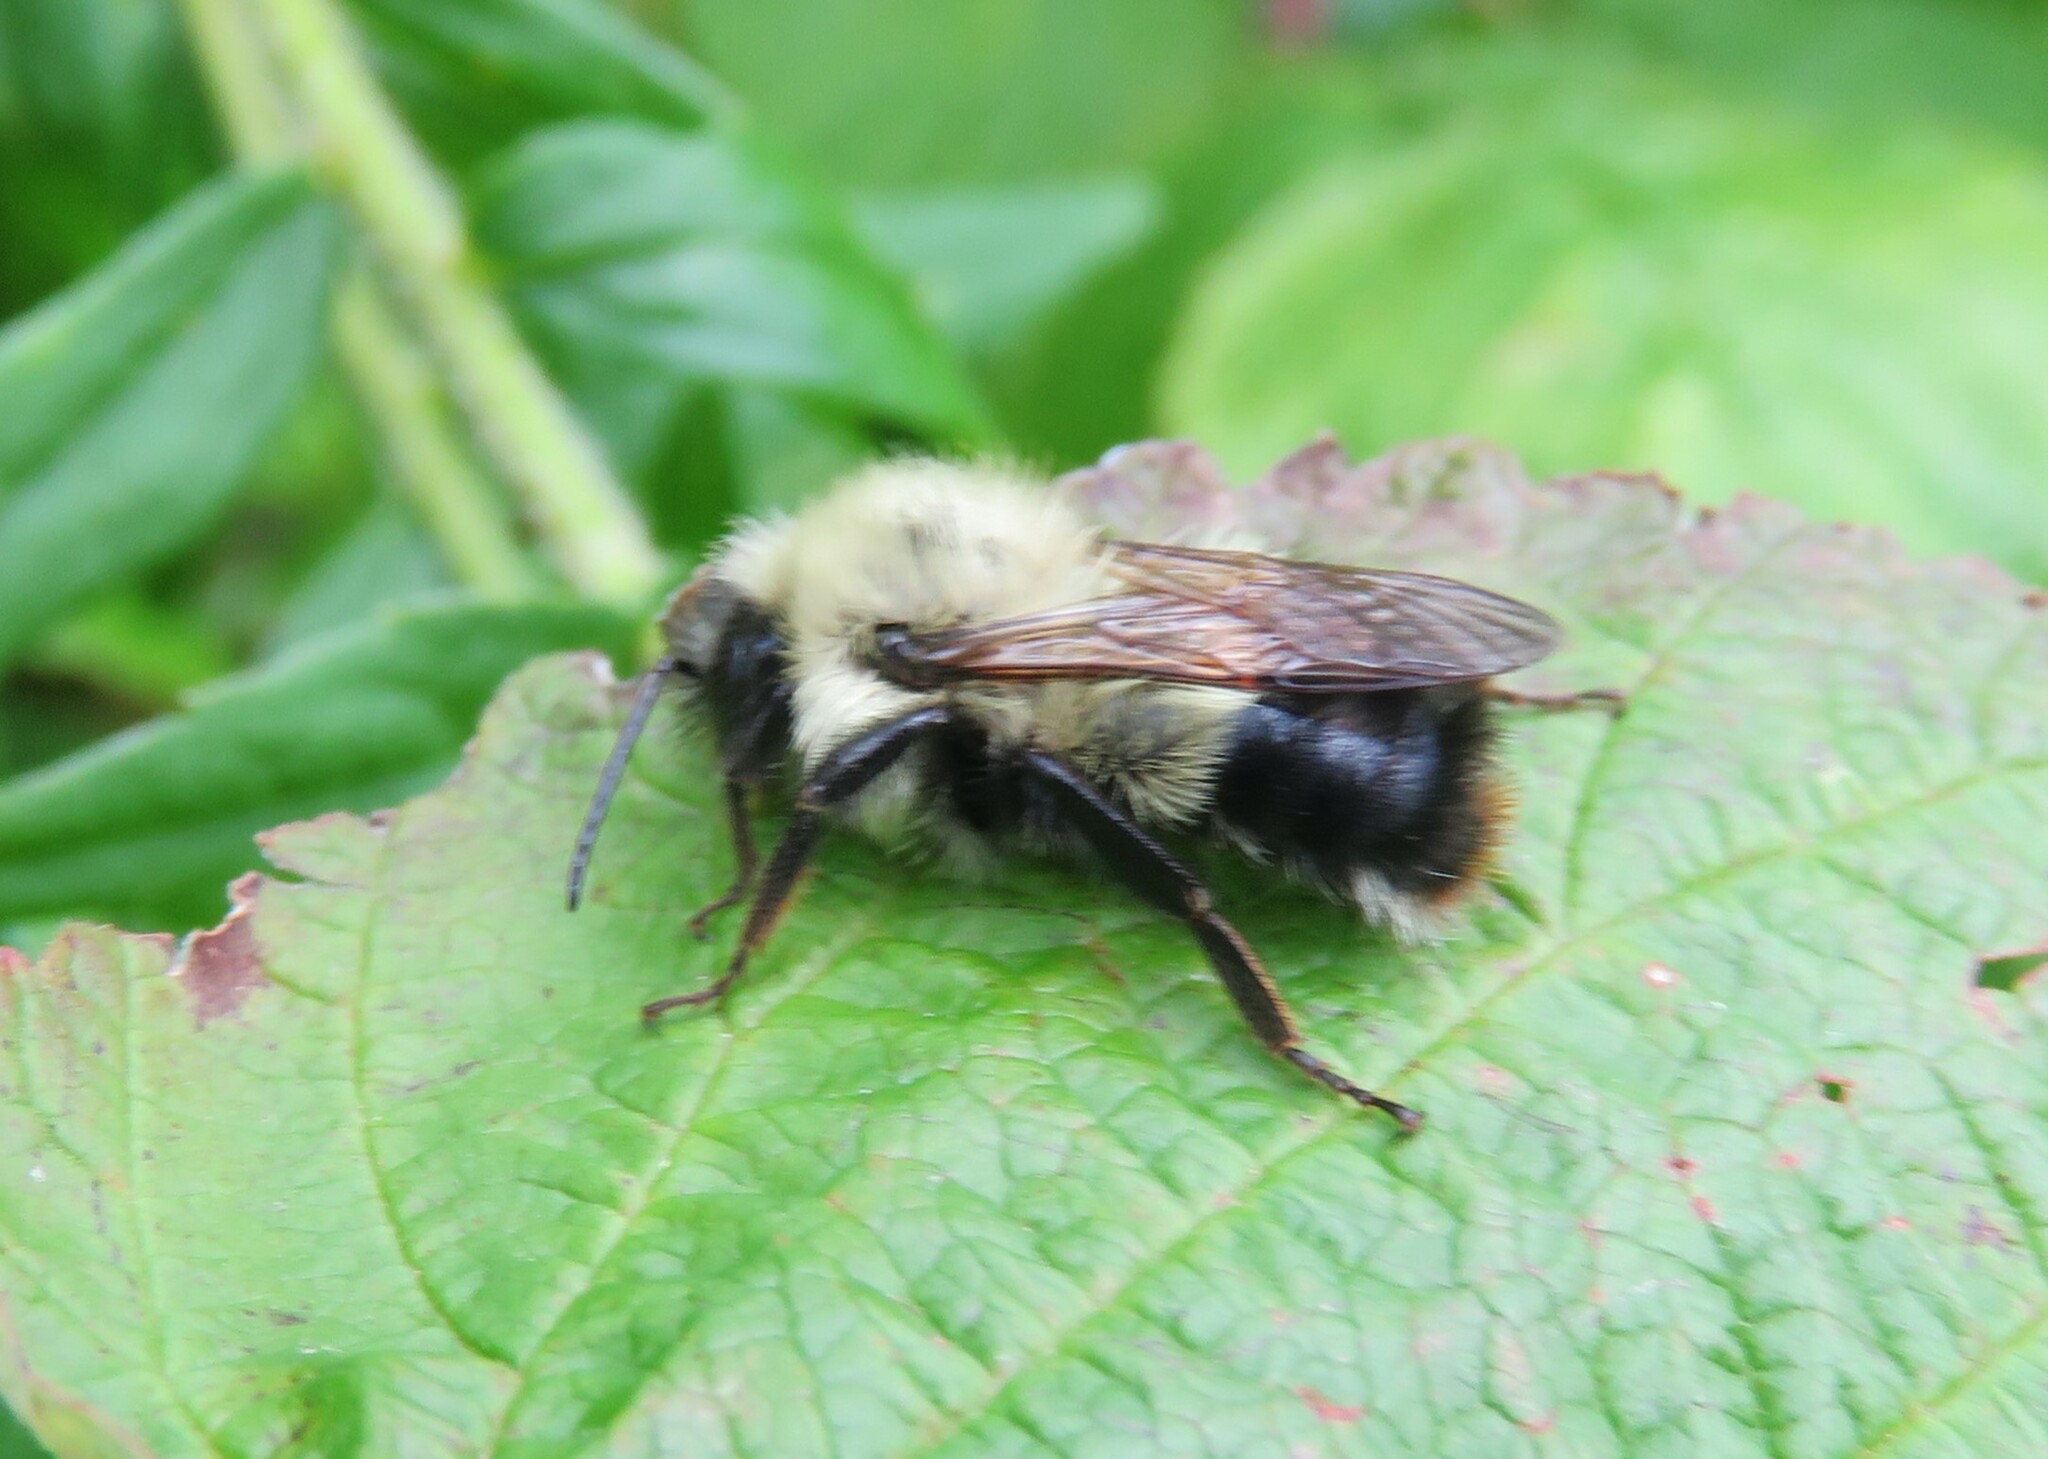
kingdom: Animalia
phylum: Arthropoda
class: Insecta
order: Hymenoptera
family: Apidae
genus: Pyrobombus
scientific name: Pyrobombus
